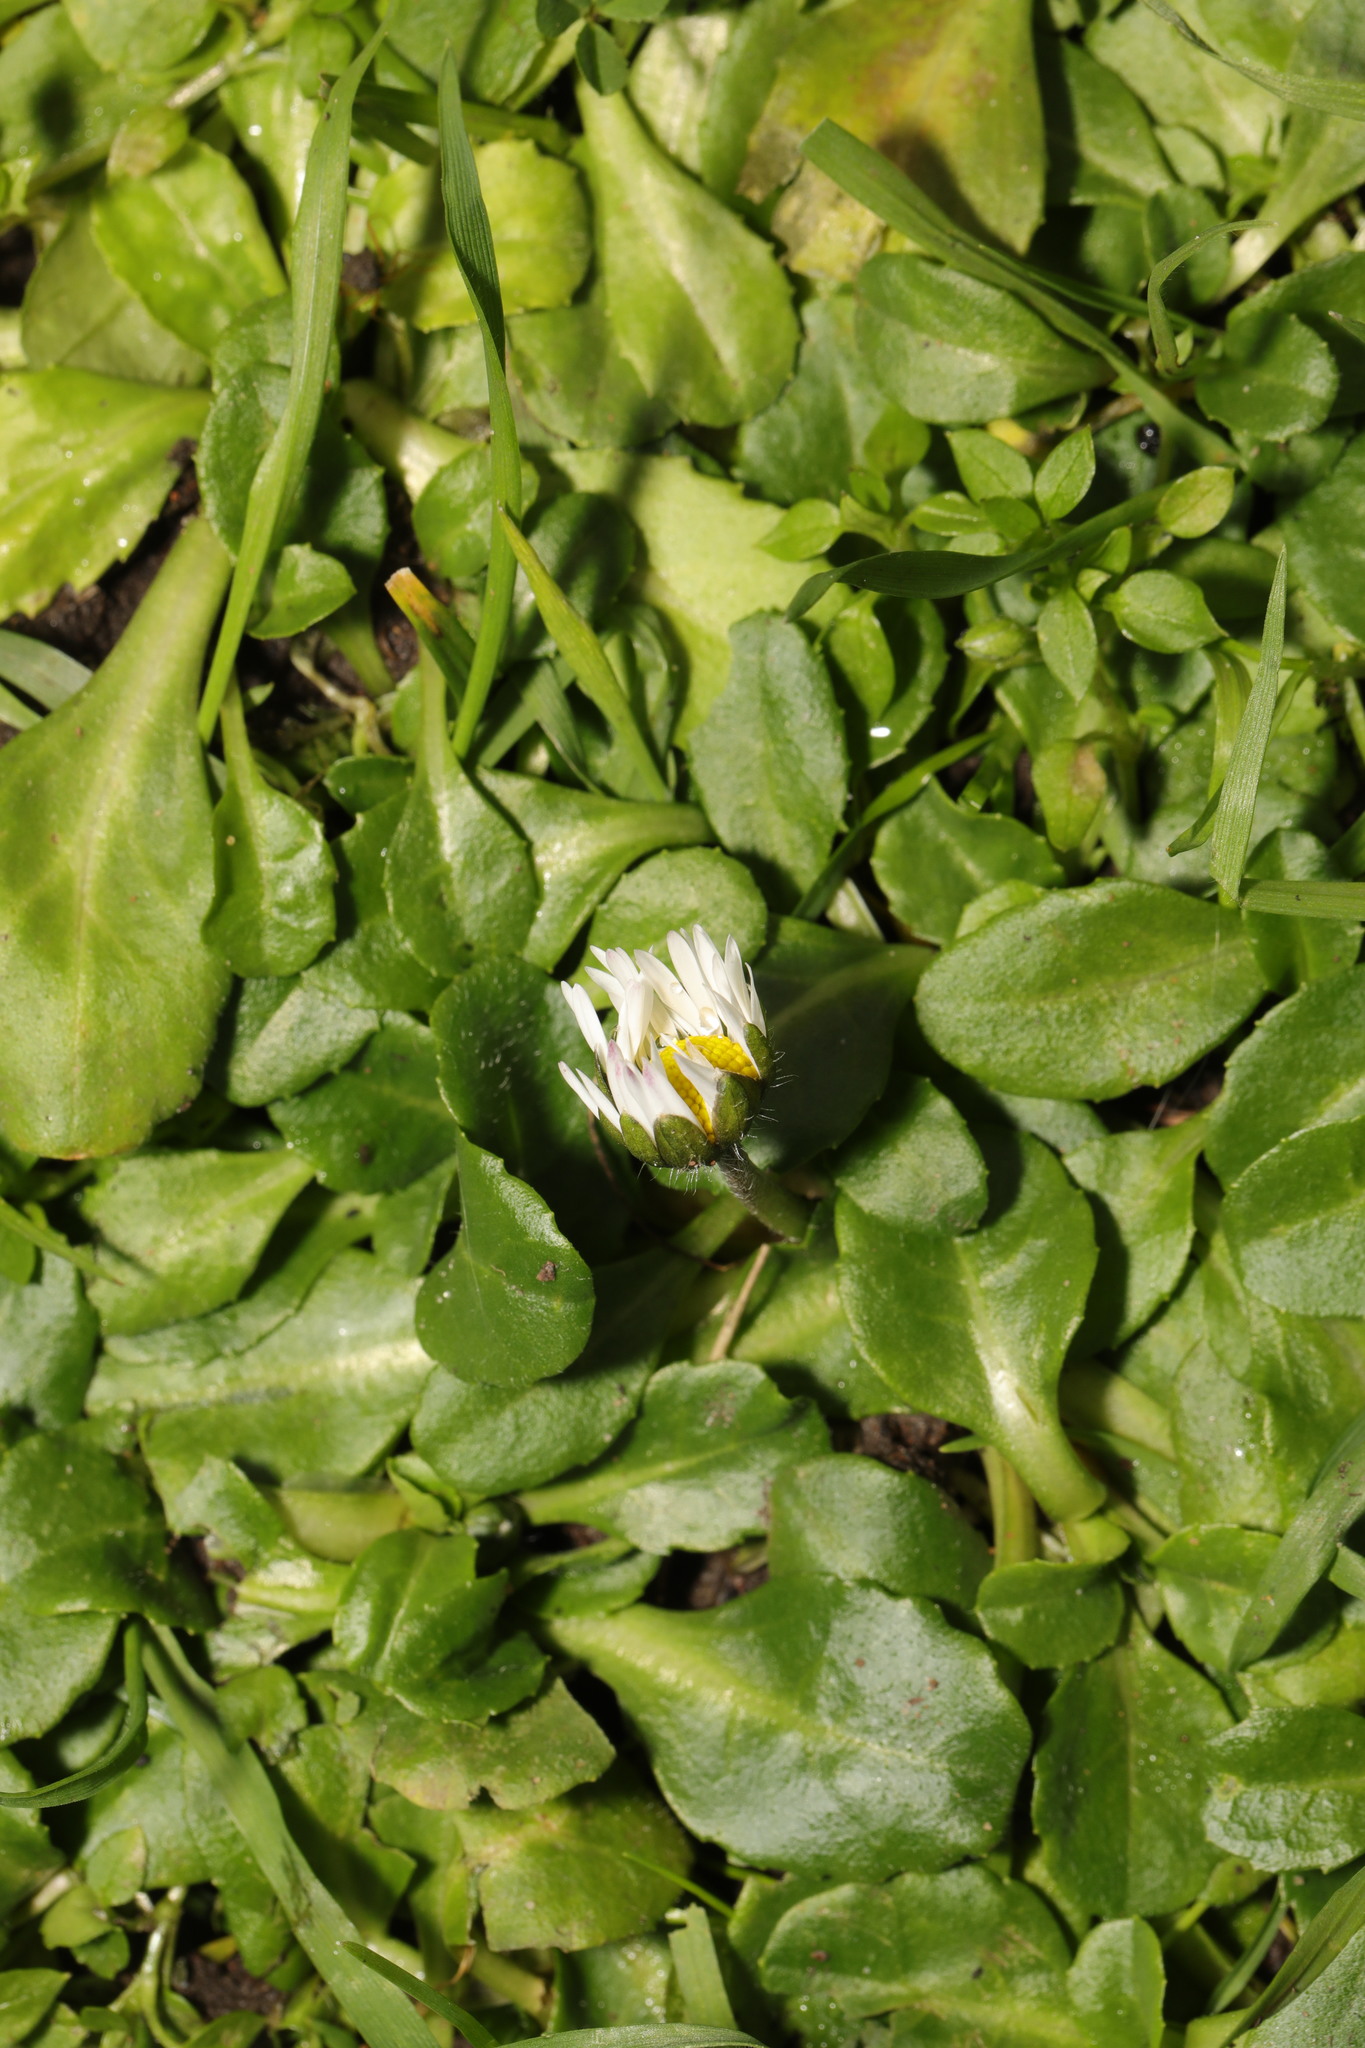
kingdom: Plantae
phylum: Tracheophyta
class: Magnoliopsida
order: Asterales
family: Asteraceae
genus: Bellis
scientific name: Bellis perennis
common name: Lawndaisy
